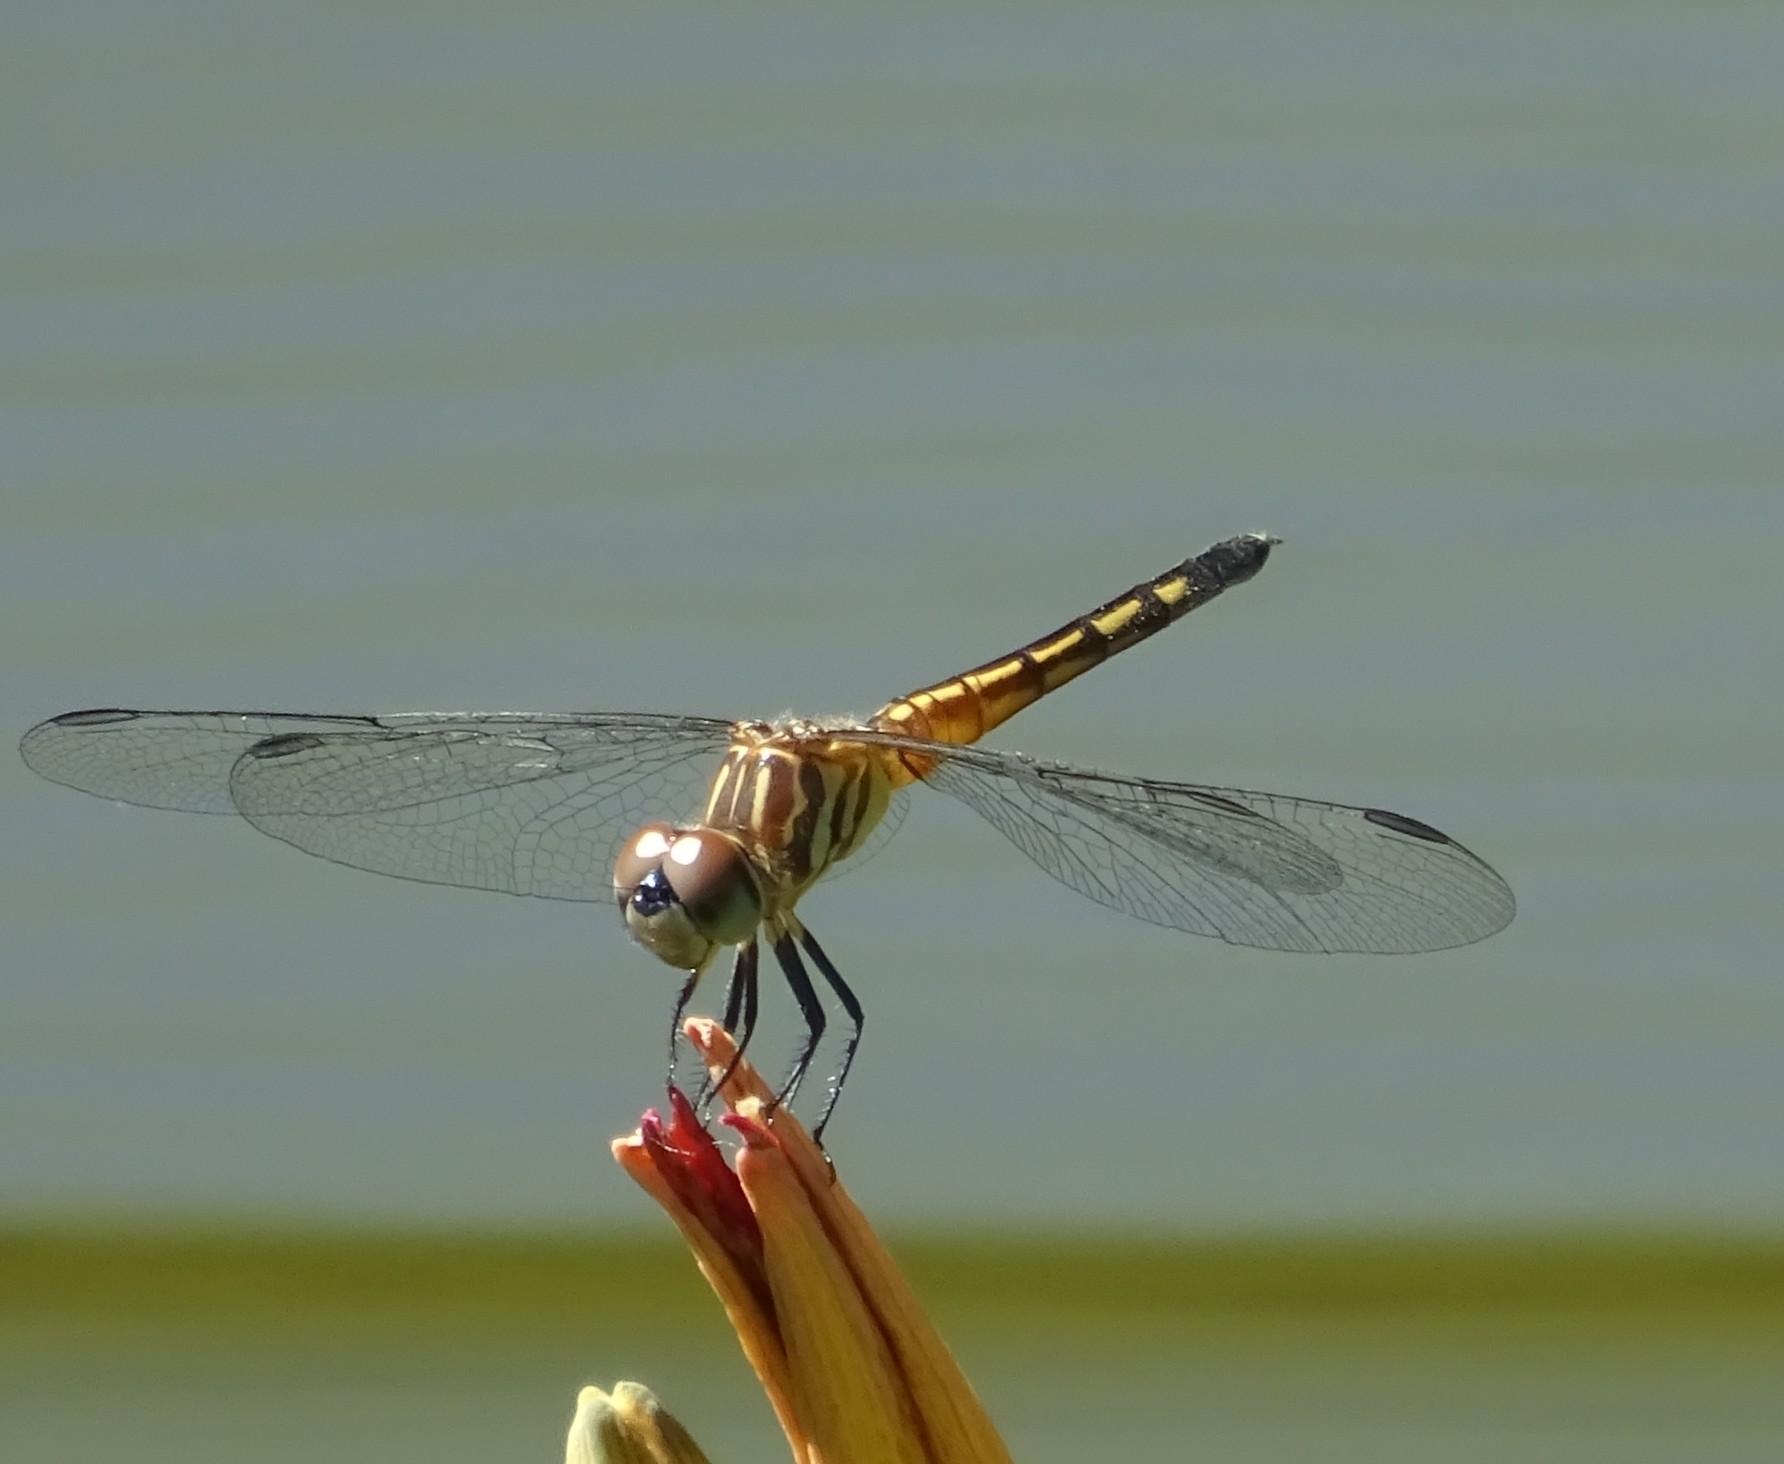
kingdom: Animalia
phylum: Arthropoda
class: Insecta
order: Odonata
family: Libellulidae
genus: Pachydiplax
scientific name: Pachydiplax longipennis
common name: Blue dasher
